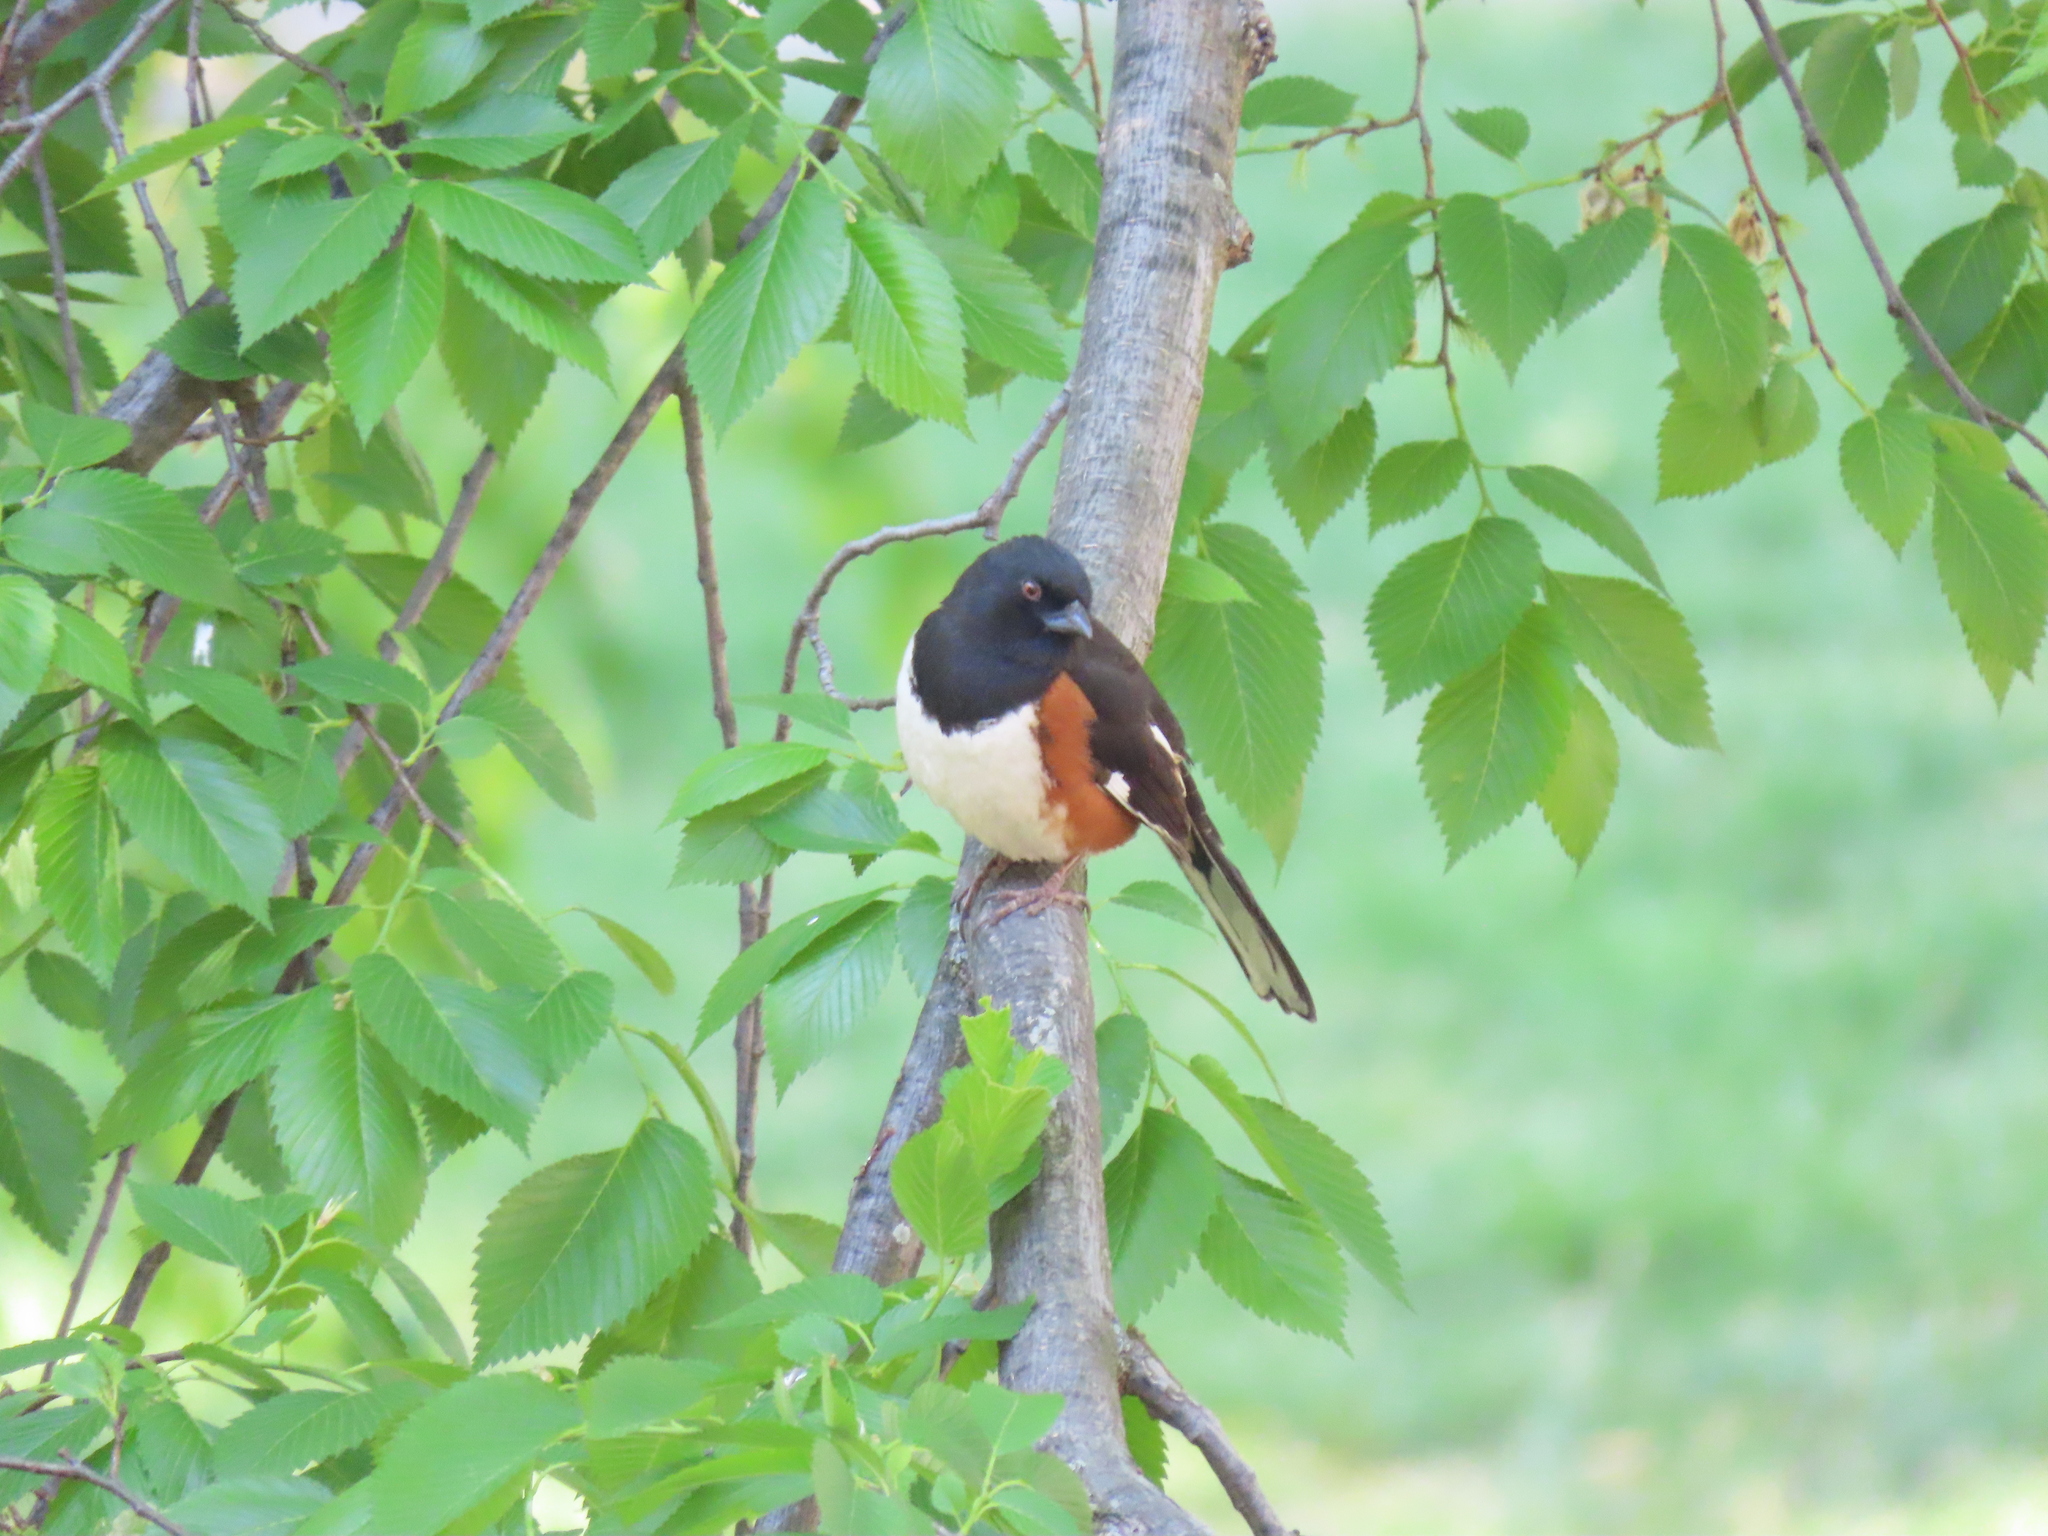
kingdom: Animalia
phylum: Chordata
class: Aves
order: Passeriformes
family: Passerellidae
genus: Pipilo
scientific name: Pipilo erythrophthalmus
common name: Eastern towhee
